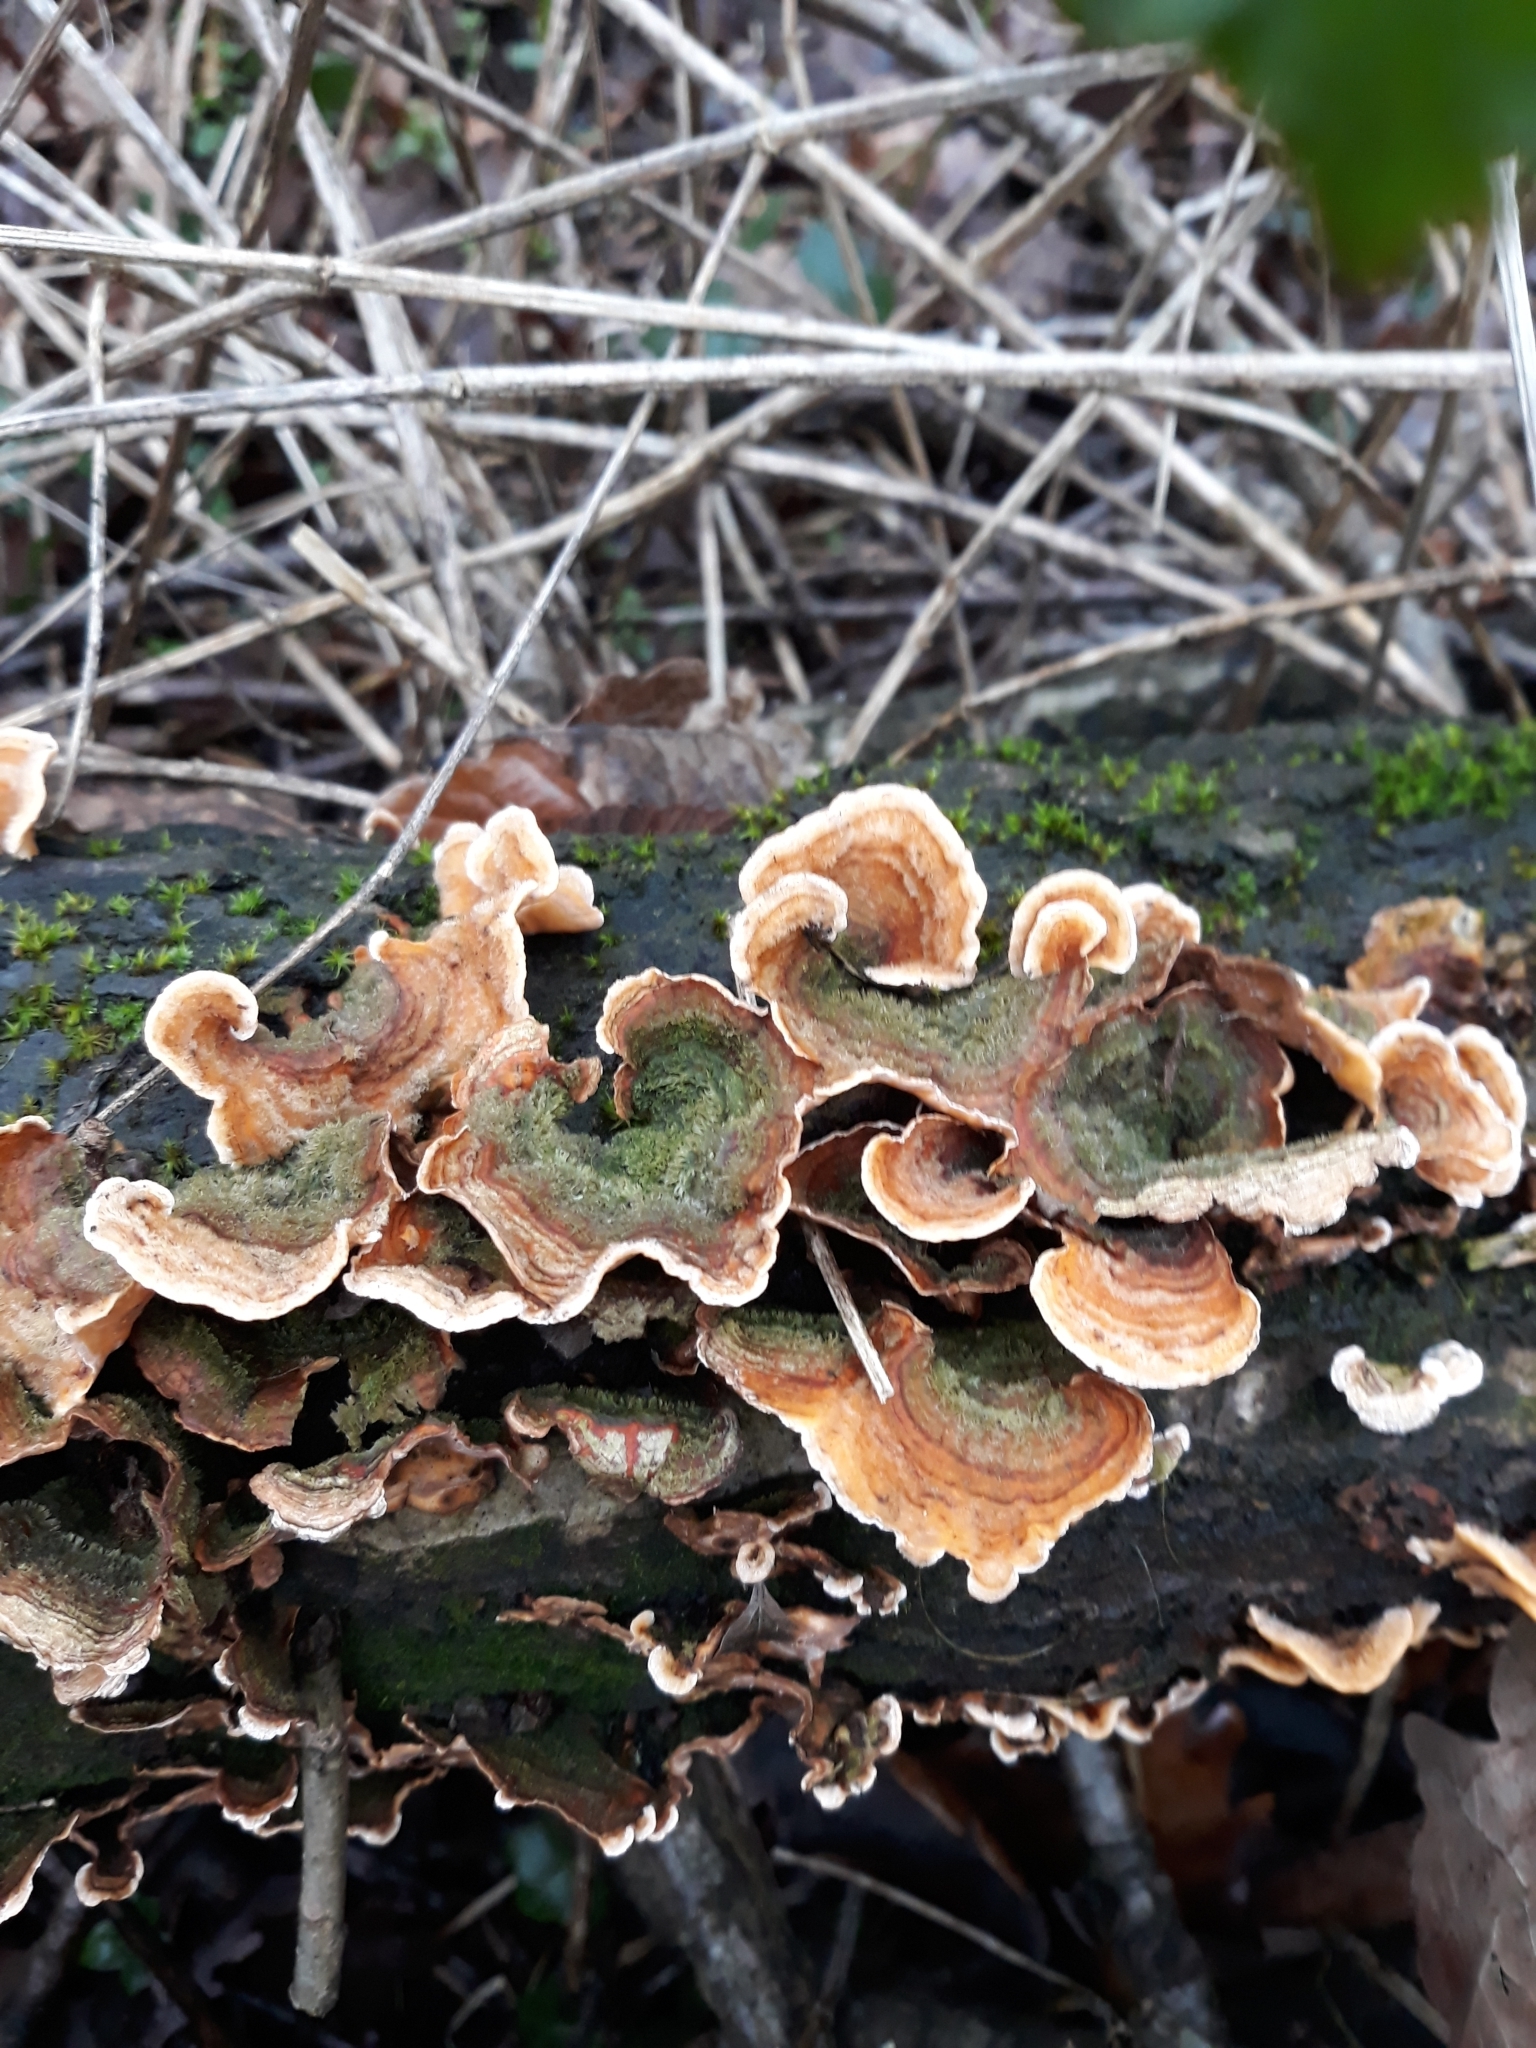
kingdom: Fungi
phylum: Basidiomycota
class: Agaricomycetes
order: Russulales
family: Stereaceae
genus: Stereum
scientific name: Stereum hirsutum
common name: Hairy curtain crust
